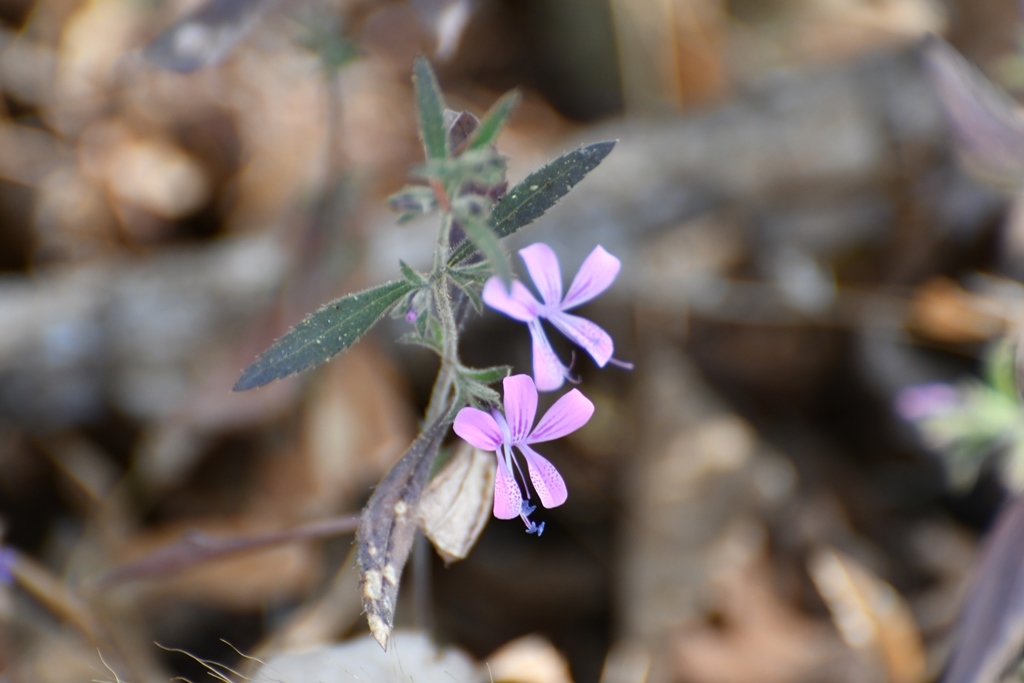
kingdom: Plantae
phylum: Tracheophyta
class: Magnoliopsida
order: Ericales
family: Polemoniaceae
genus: Loeselia
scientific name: Loeselia glandulosa
